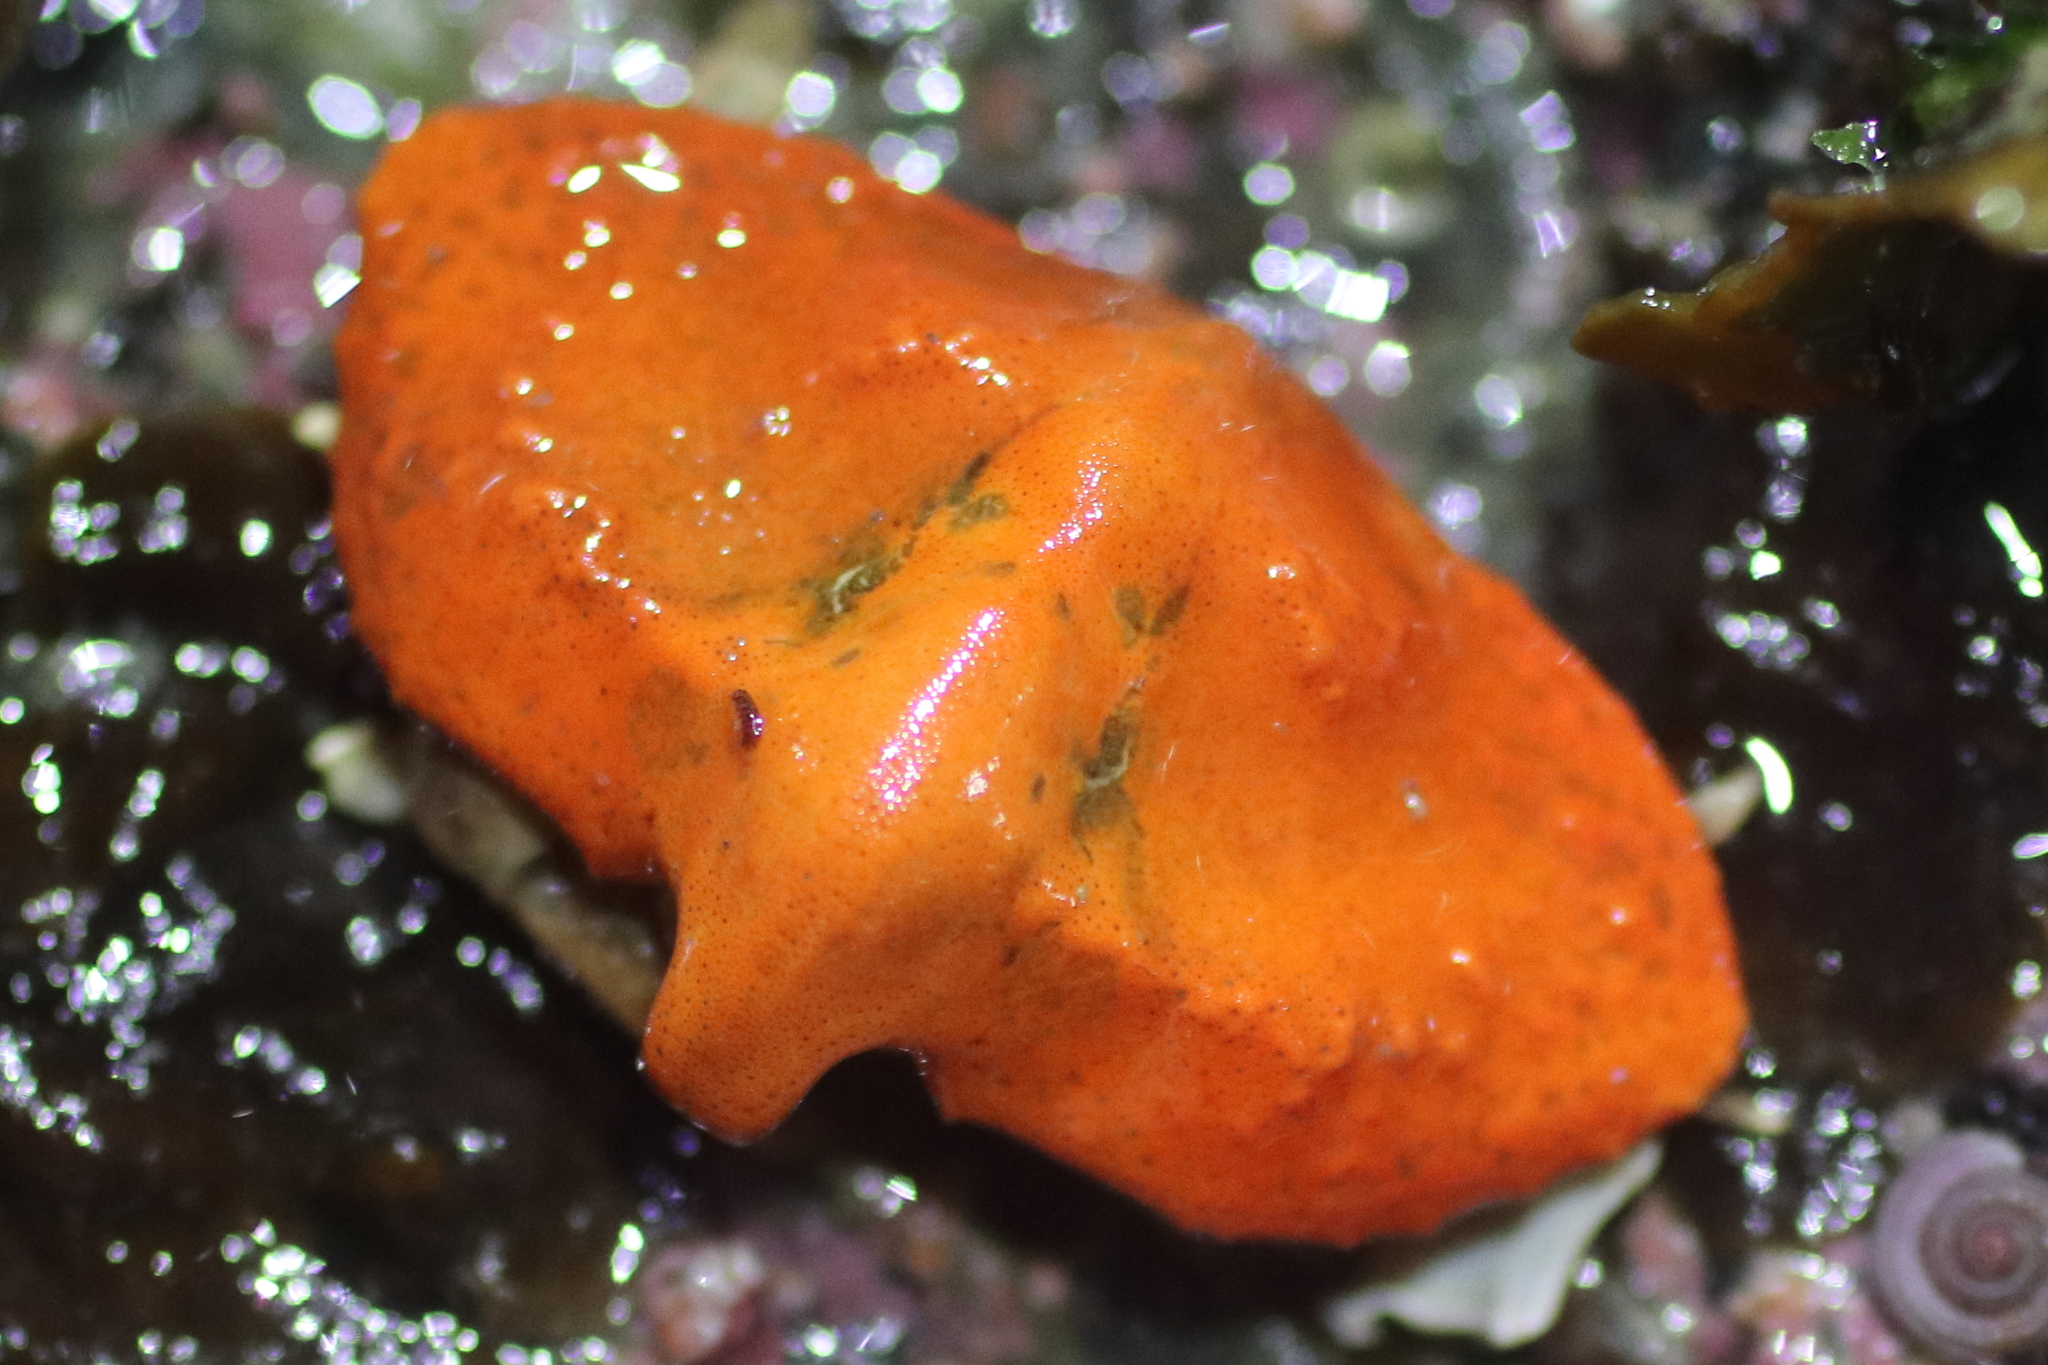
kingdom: Animalia
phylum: Arthropoda
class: Malacostraca
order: Decapoda
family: Lithodidae
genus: Cryptolithodes
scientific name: Cryptolithodes typicus
